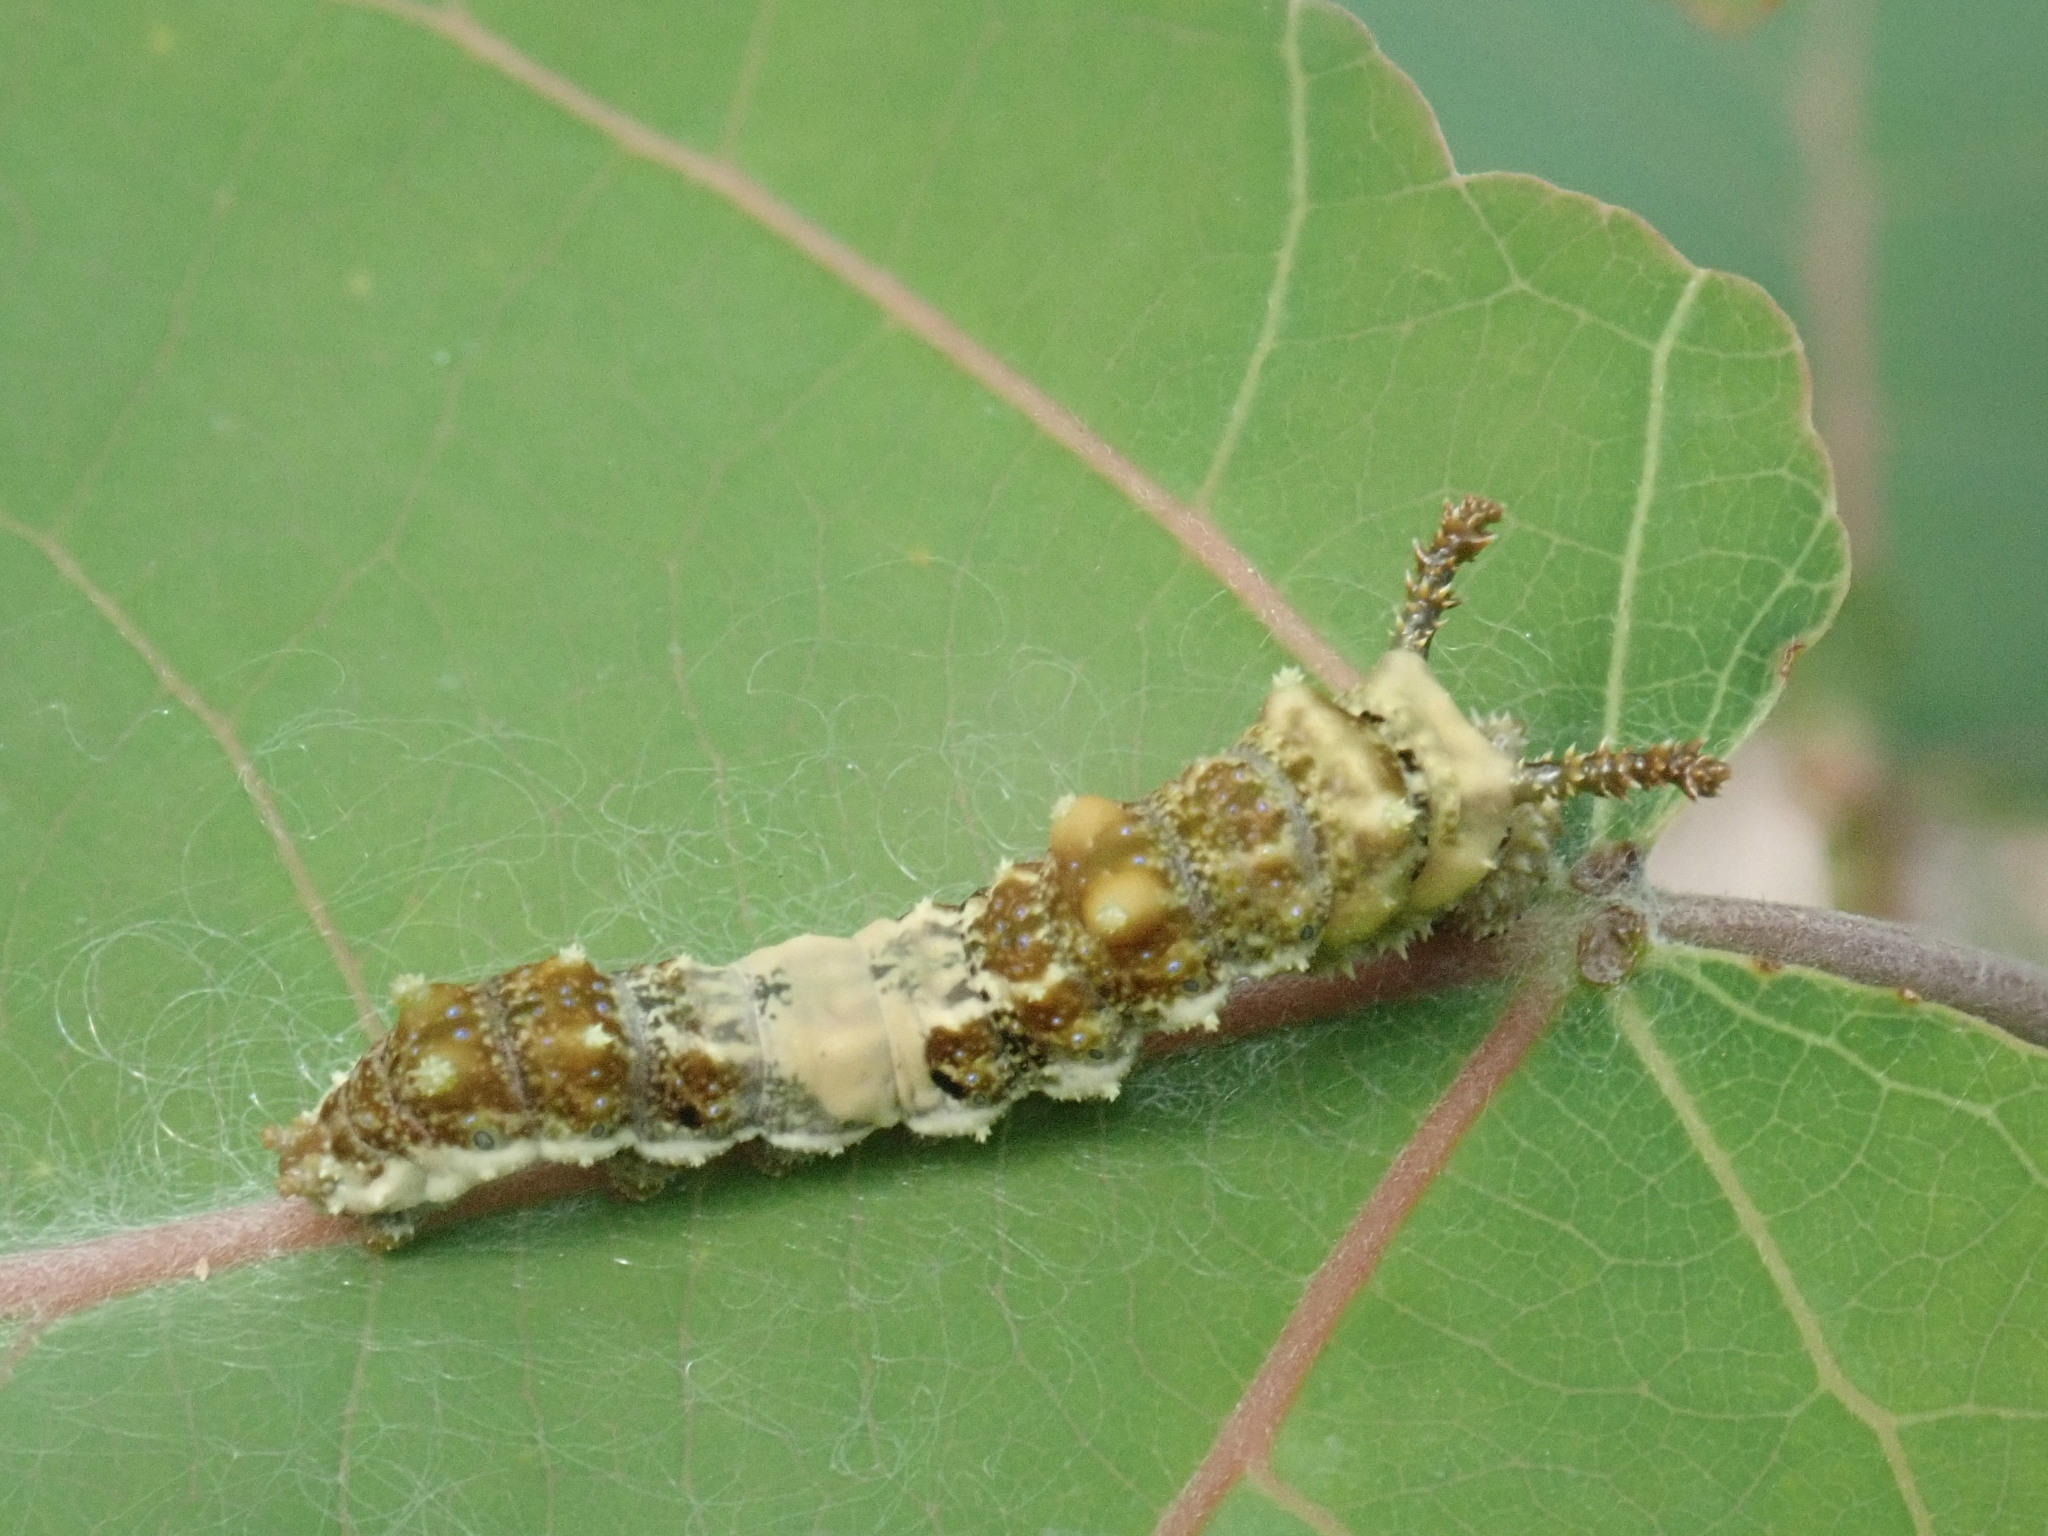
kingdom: Animalia
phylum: Arthropoda
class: Insecta
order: Lepidoptera
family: Nymphalidae
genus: Limenitis
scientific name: Limenitis archippus
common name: Viceroy
